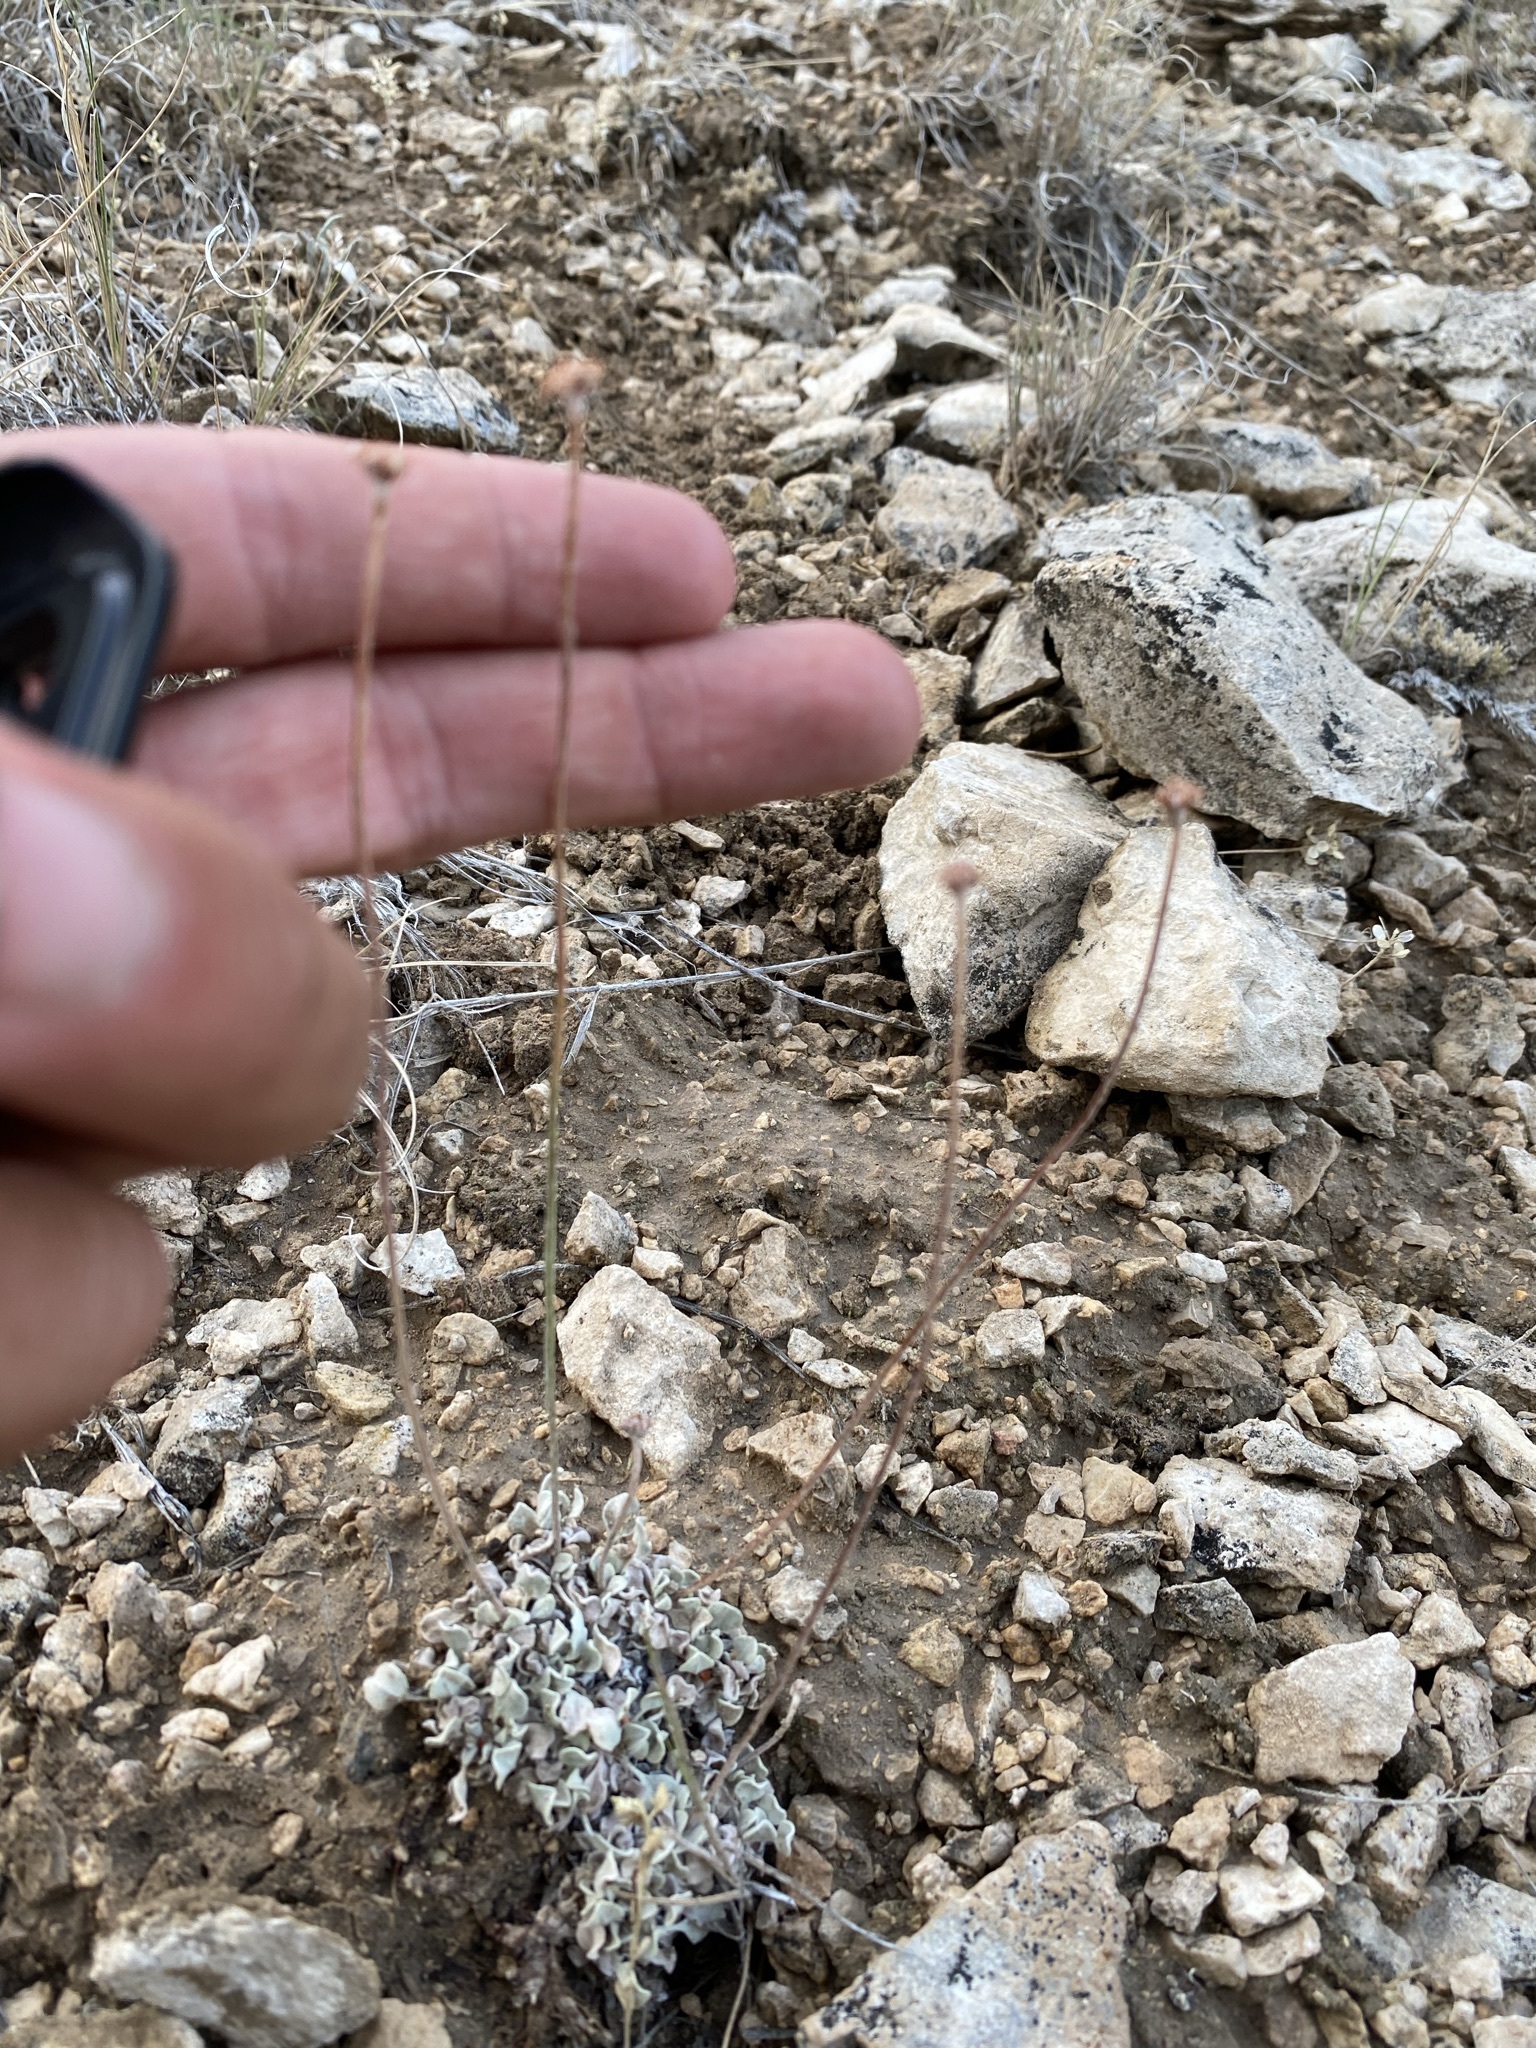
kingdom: Plantae
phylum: Tracheophyta
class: Magnoliopsida
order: Caryophyllales
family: Polygonaceae
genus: Eriogonum
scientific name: Eriogonum ovalifolium
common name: Cushion buckwheat
